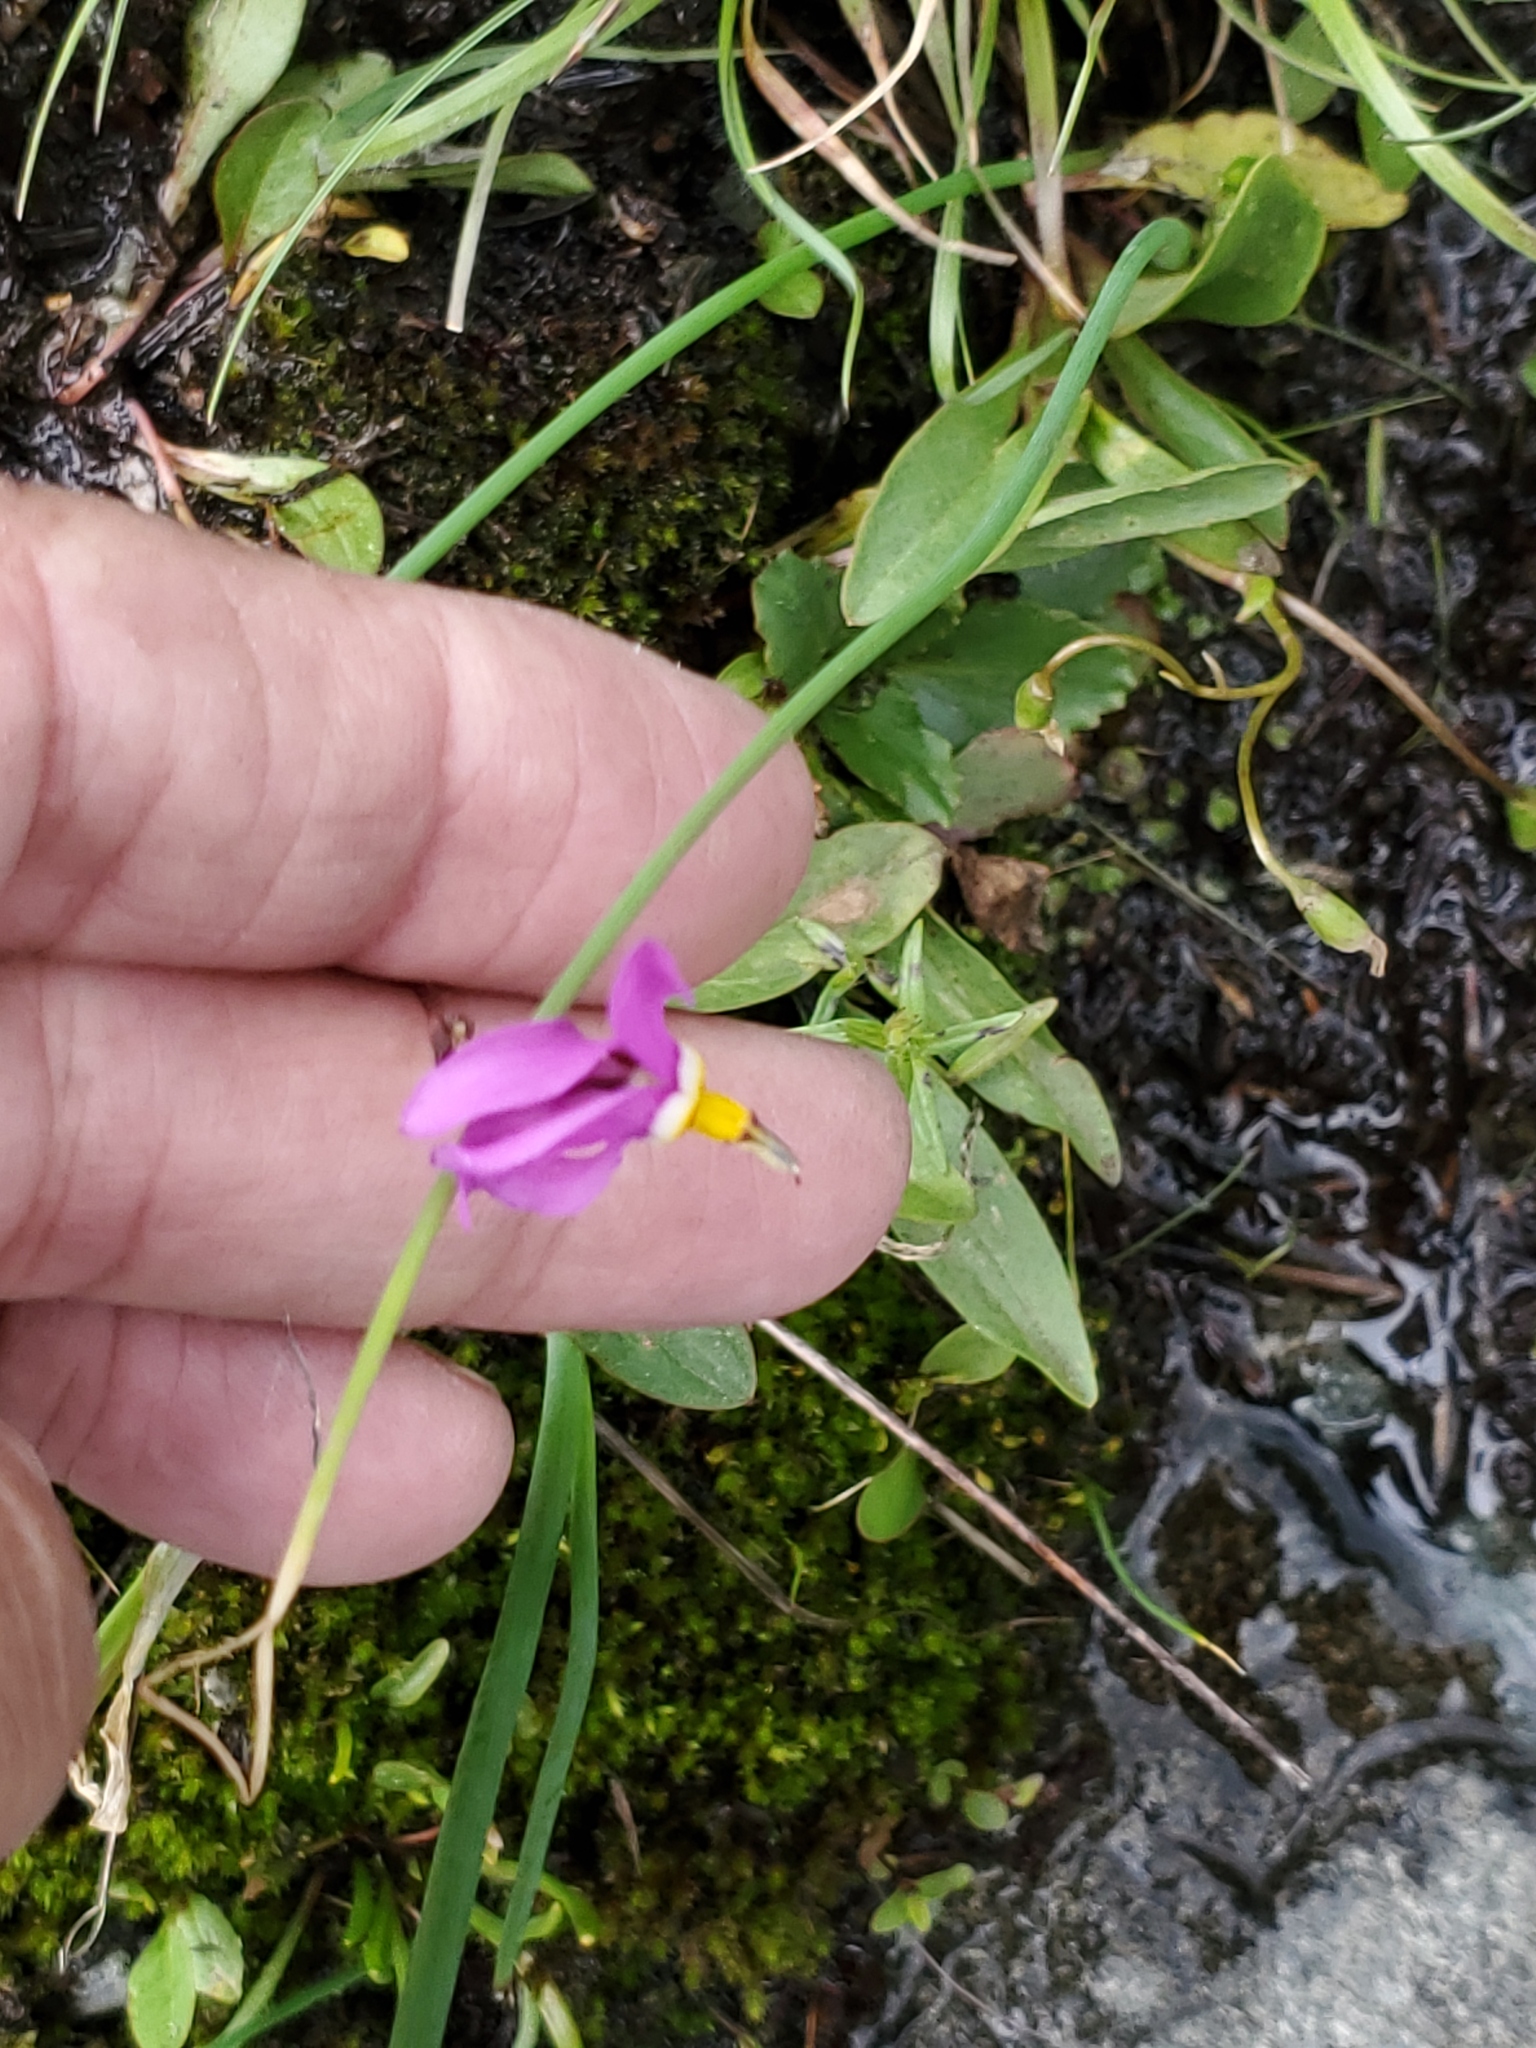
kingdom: Plantae
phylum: Tracheophyta
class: Magnoliopsida
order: Ericales
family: Primulaceae
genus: Dodecatheon
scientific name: Dodecatheon pulchellum
